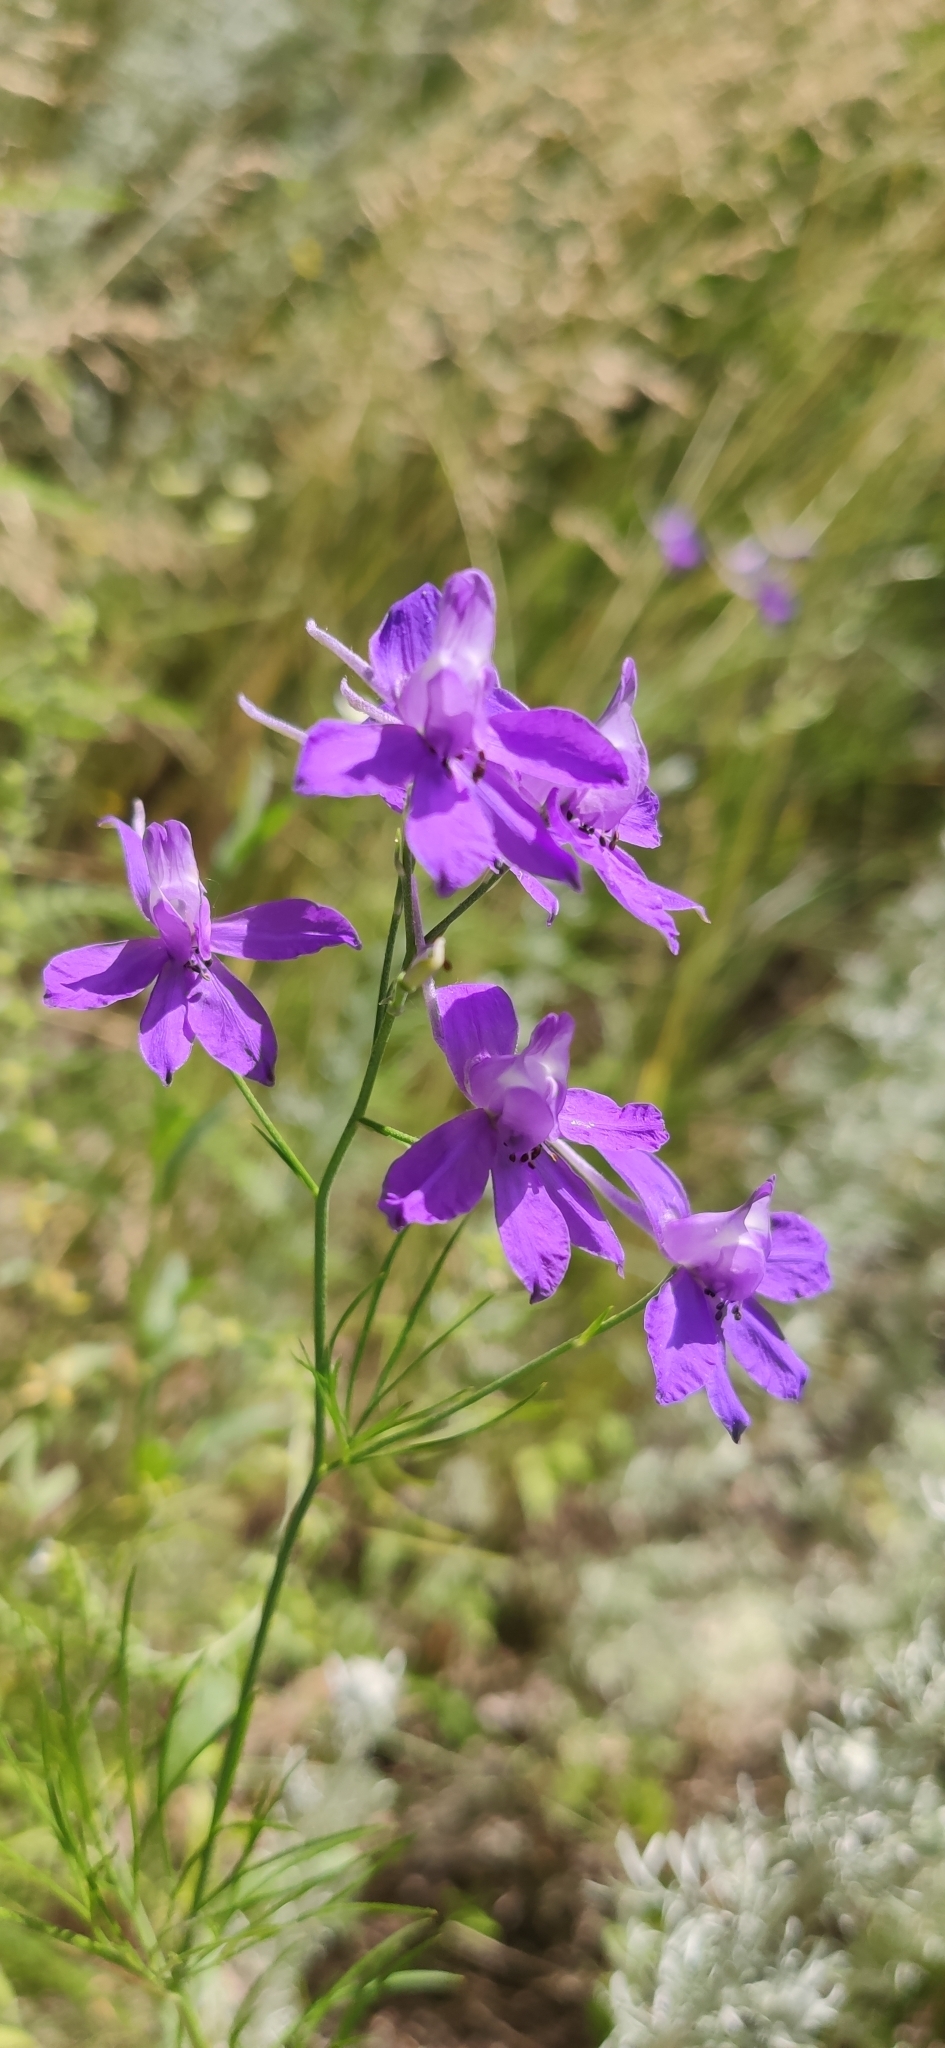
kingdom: Plantae
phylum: Tracheophyta
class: Magnoliopsida
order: Ranunculales
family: Ranunculaceae
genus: Delphinium
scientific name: Delphinium consolida
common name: Branching larkspur
